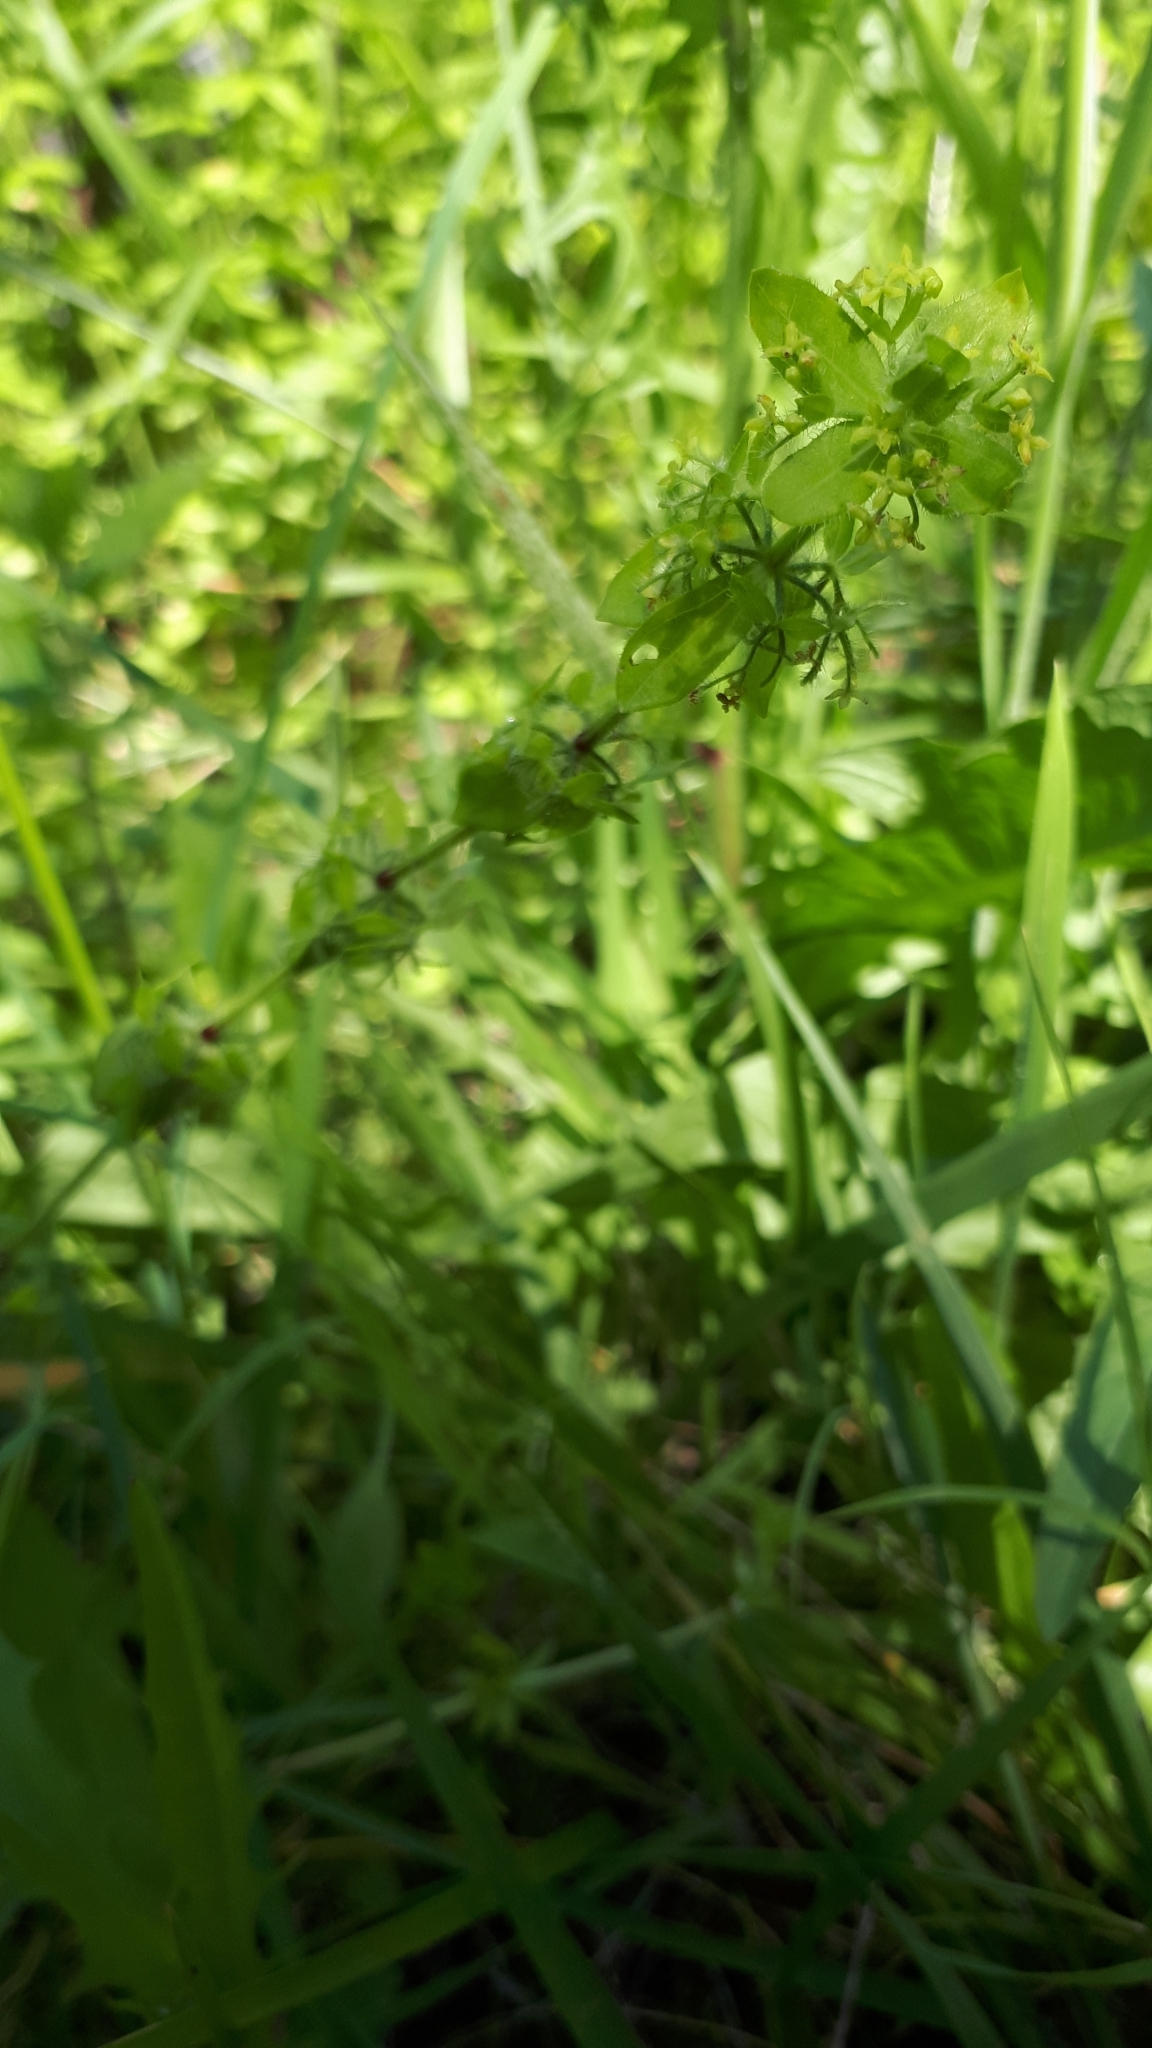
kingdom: Plantae
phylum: Tracheophyta
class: Magnoliopsida
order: Gentianales
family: Rubiaceae
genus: Cruciata
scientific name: Cruciata laevipes
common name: Crosswort
